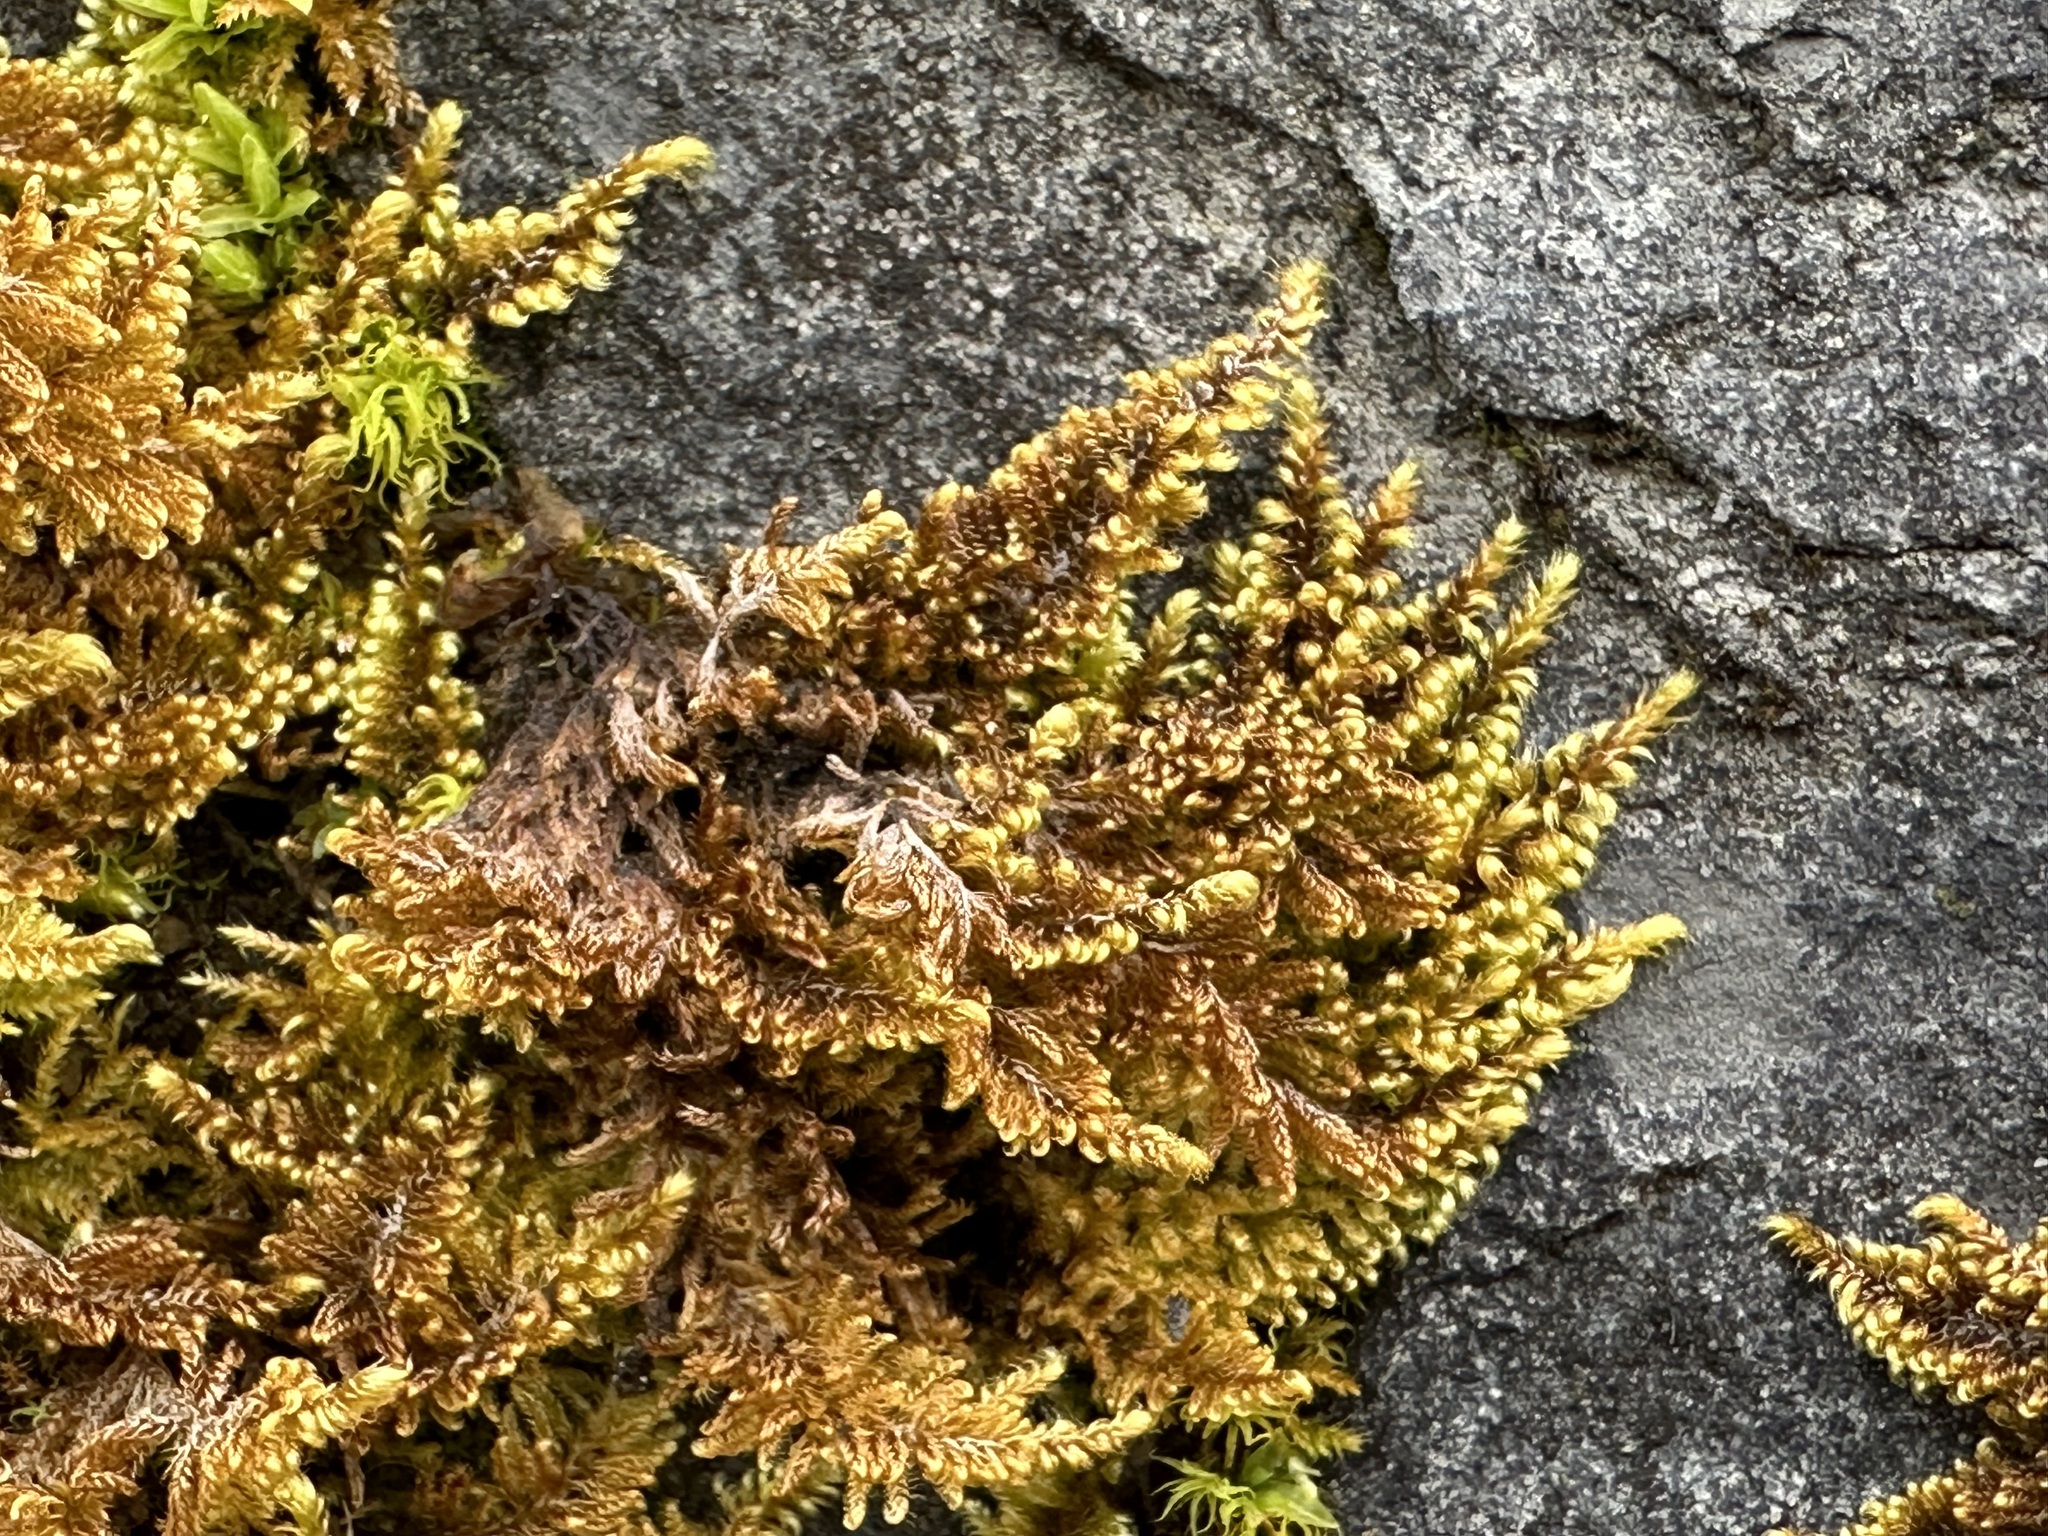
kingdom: Plantae
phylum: Bryophyta
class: Bryopsida
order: Hypnales
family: Myuriaceae
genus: Ctenidium
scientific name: Ctenidium molluscum
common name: Chalk comb-moss
